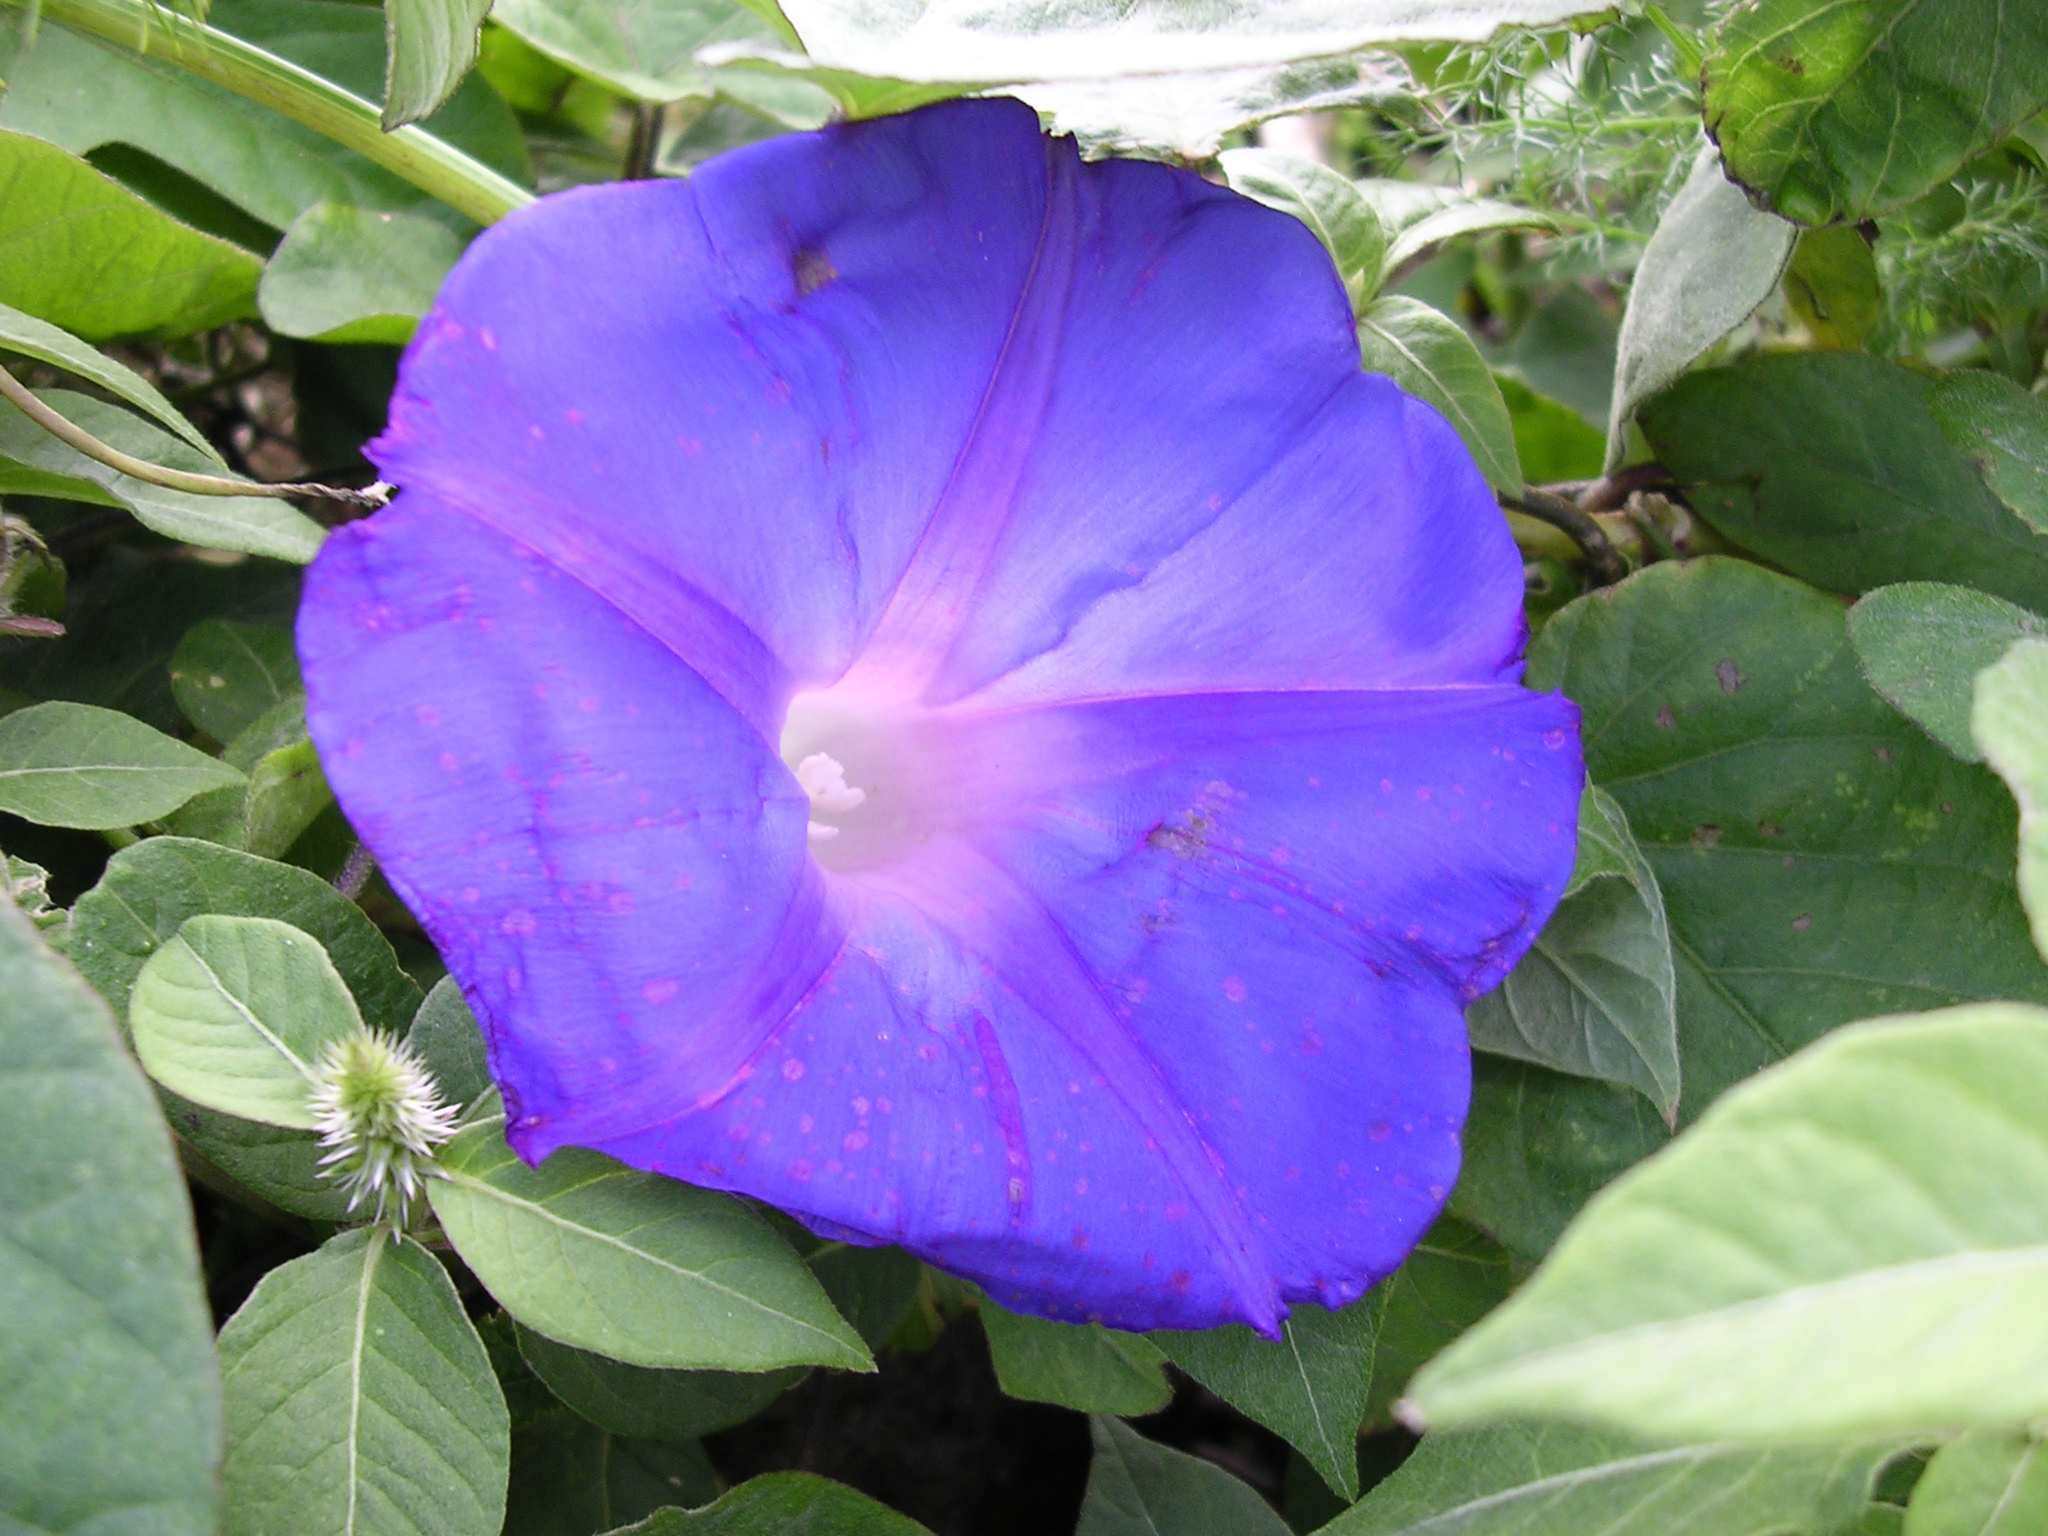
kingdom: Plantae
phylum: Tracheophyta
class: Magnoliopsida
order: Solanales
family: Convolvulaceae
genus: Ipomoea
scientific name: Ipomoea indica
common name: Blue dawnflower
